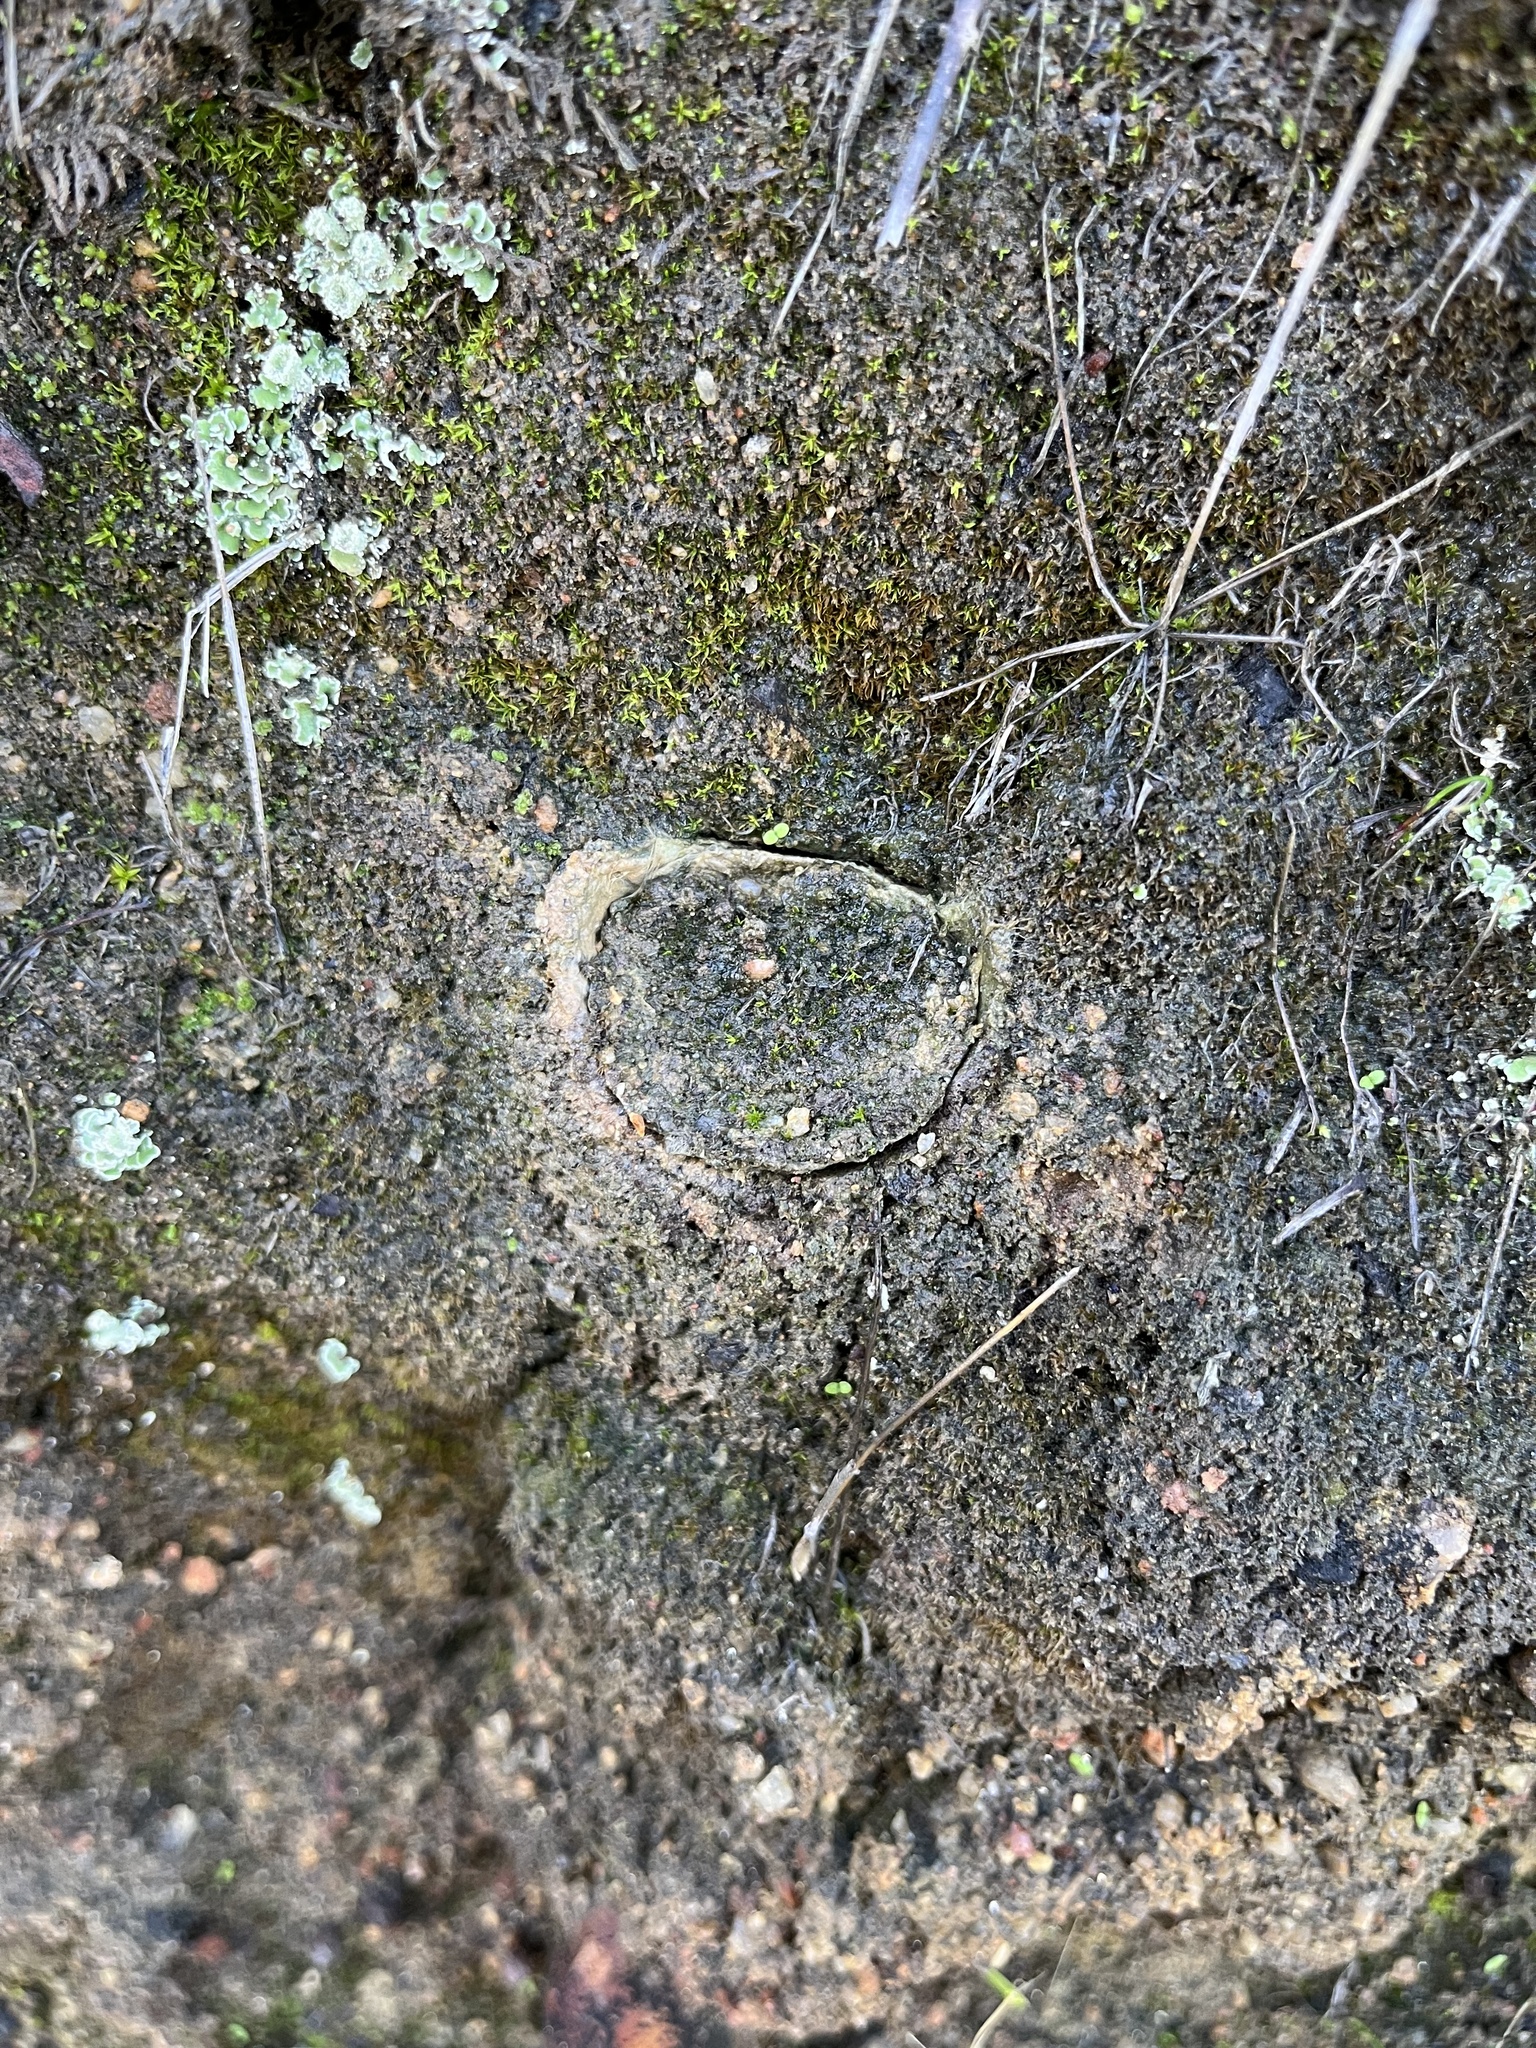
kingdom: Animalia
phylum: Arthropoda
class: Arachnida
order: Araneae
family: Halonoproctidae
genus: Bothriocyrtum
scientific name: Bothriocyrtum californicum
